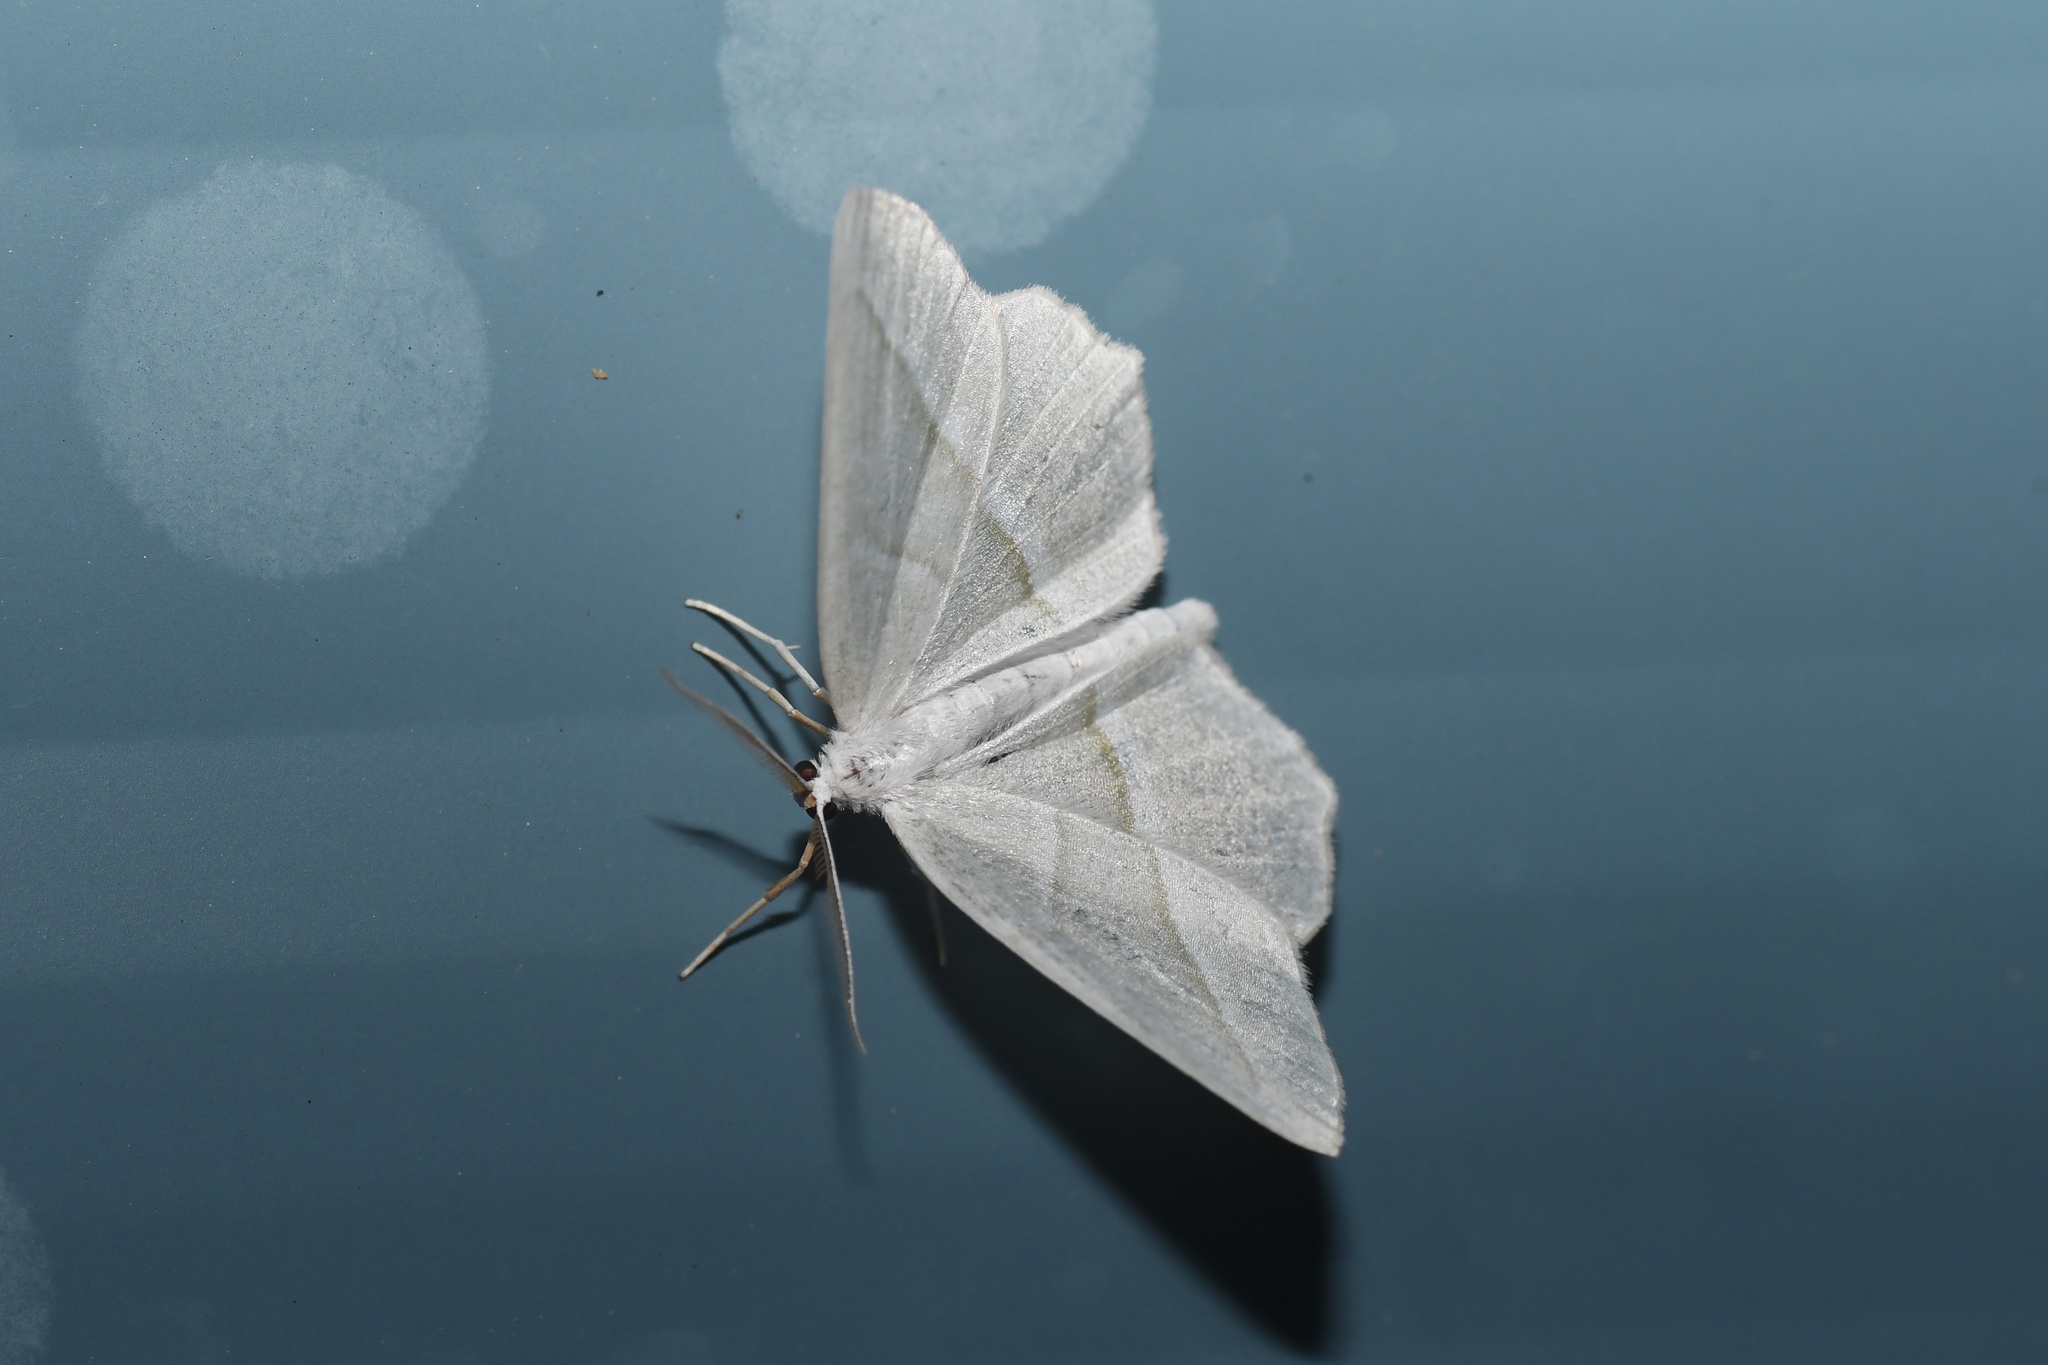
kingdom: Animalia
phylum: Arthropoda
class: Insecta
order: Lepidoptera
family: Geometridae
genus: Campaea
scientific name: Campaea perlata
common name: Fringed looper
